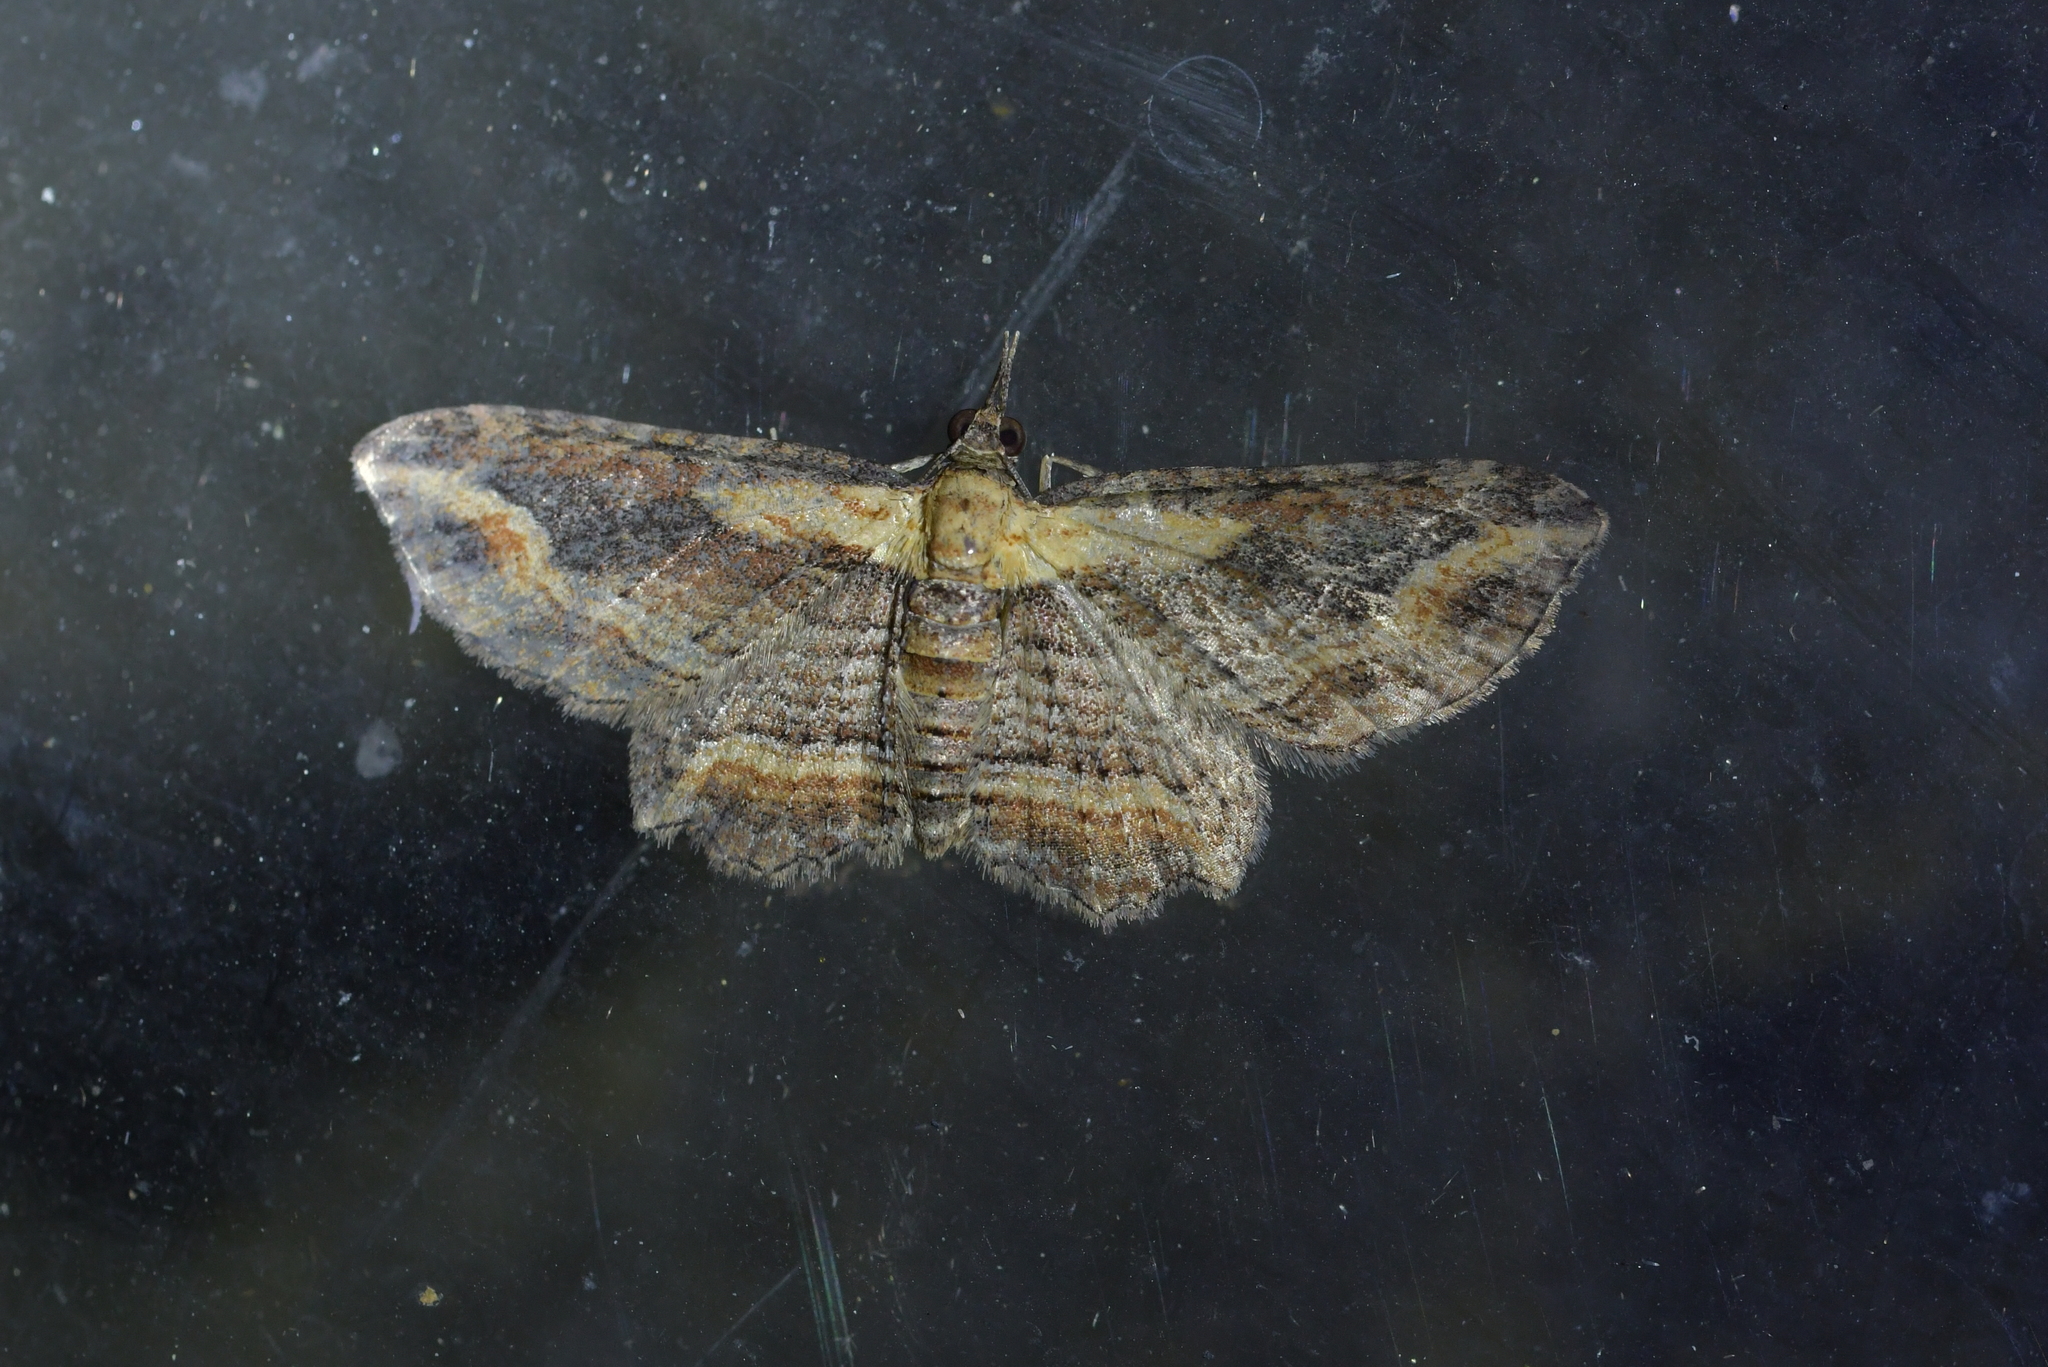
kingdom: Animalia
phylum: Arthropoda
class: Insecta
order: Lepidoptera
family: Geometridae
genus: Chloroclystis
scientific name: Chloroclystis filata
